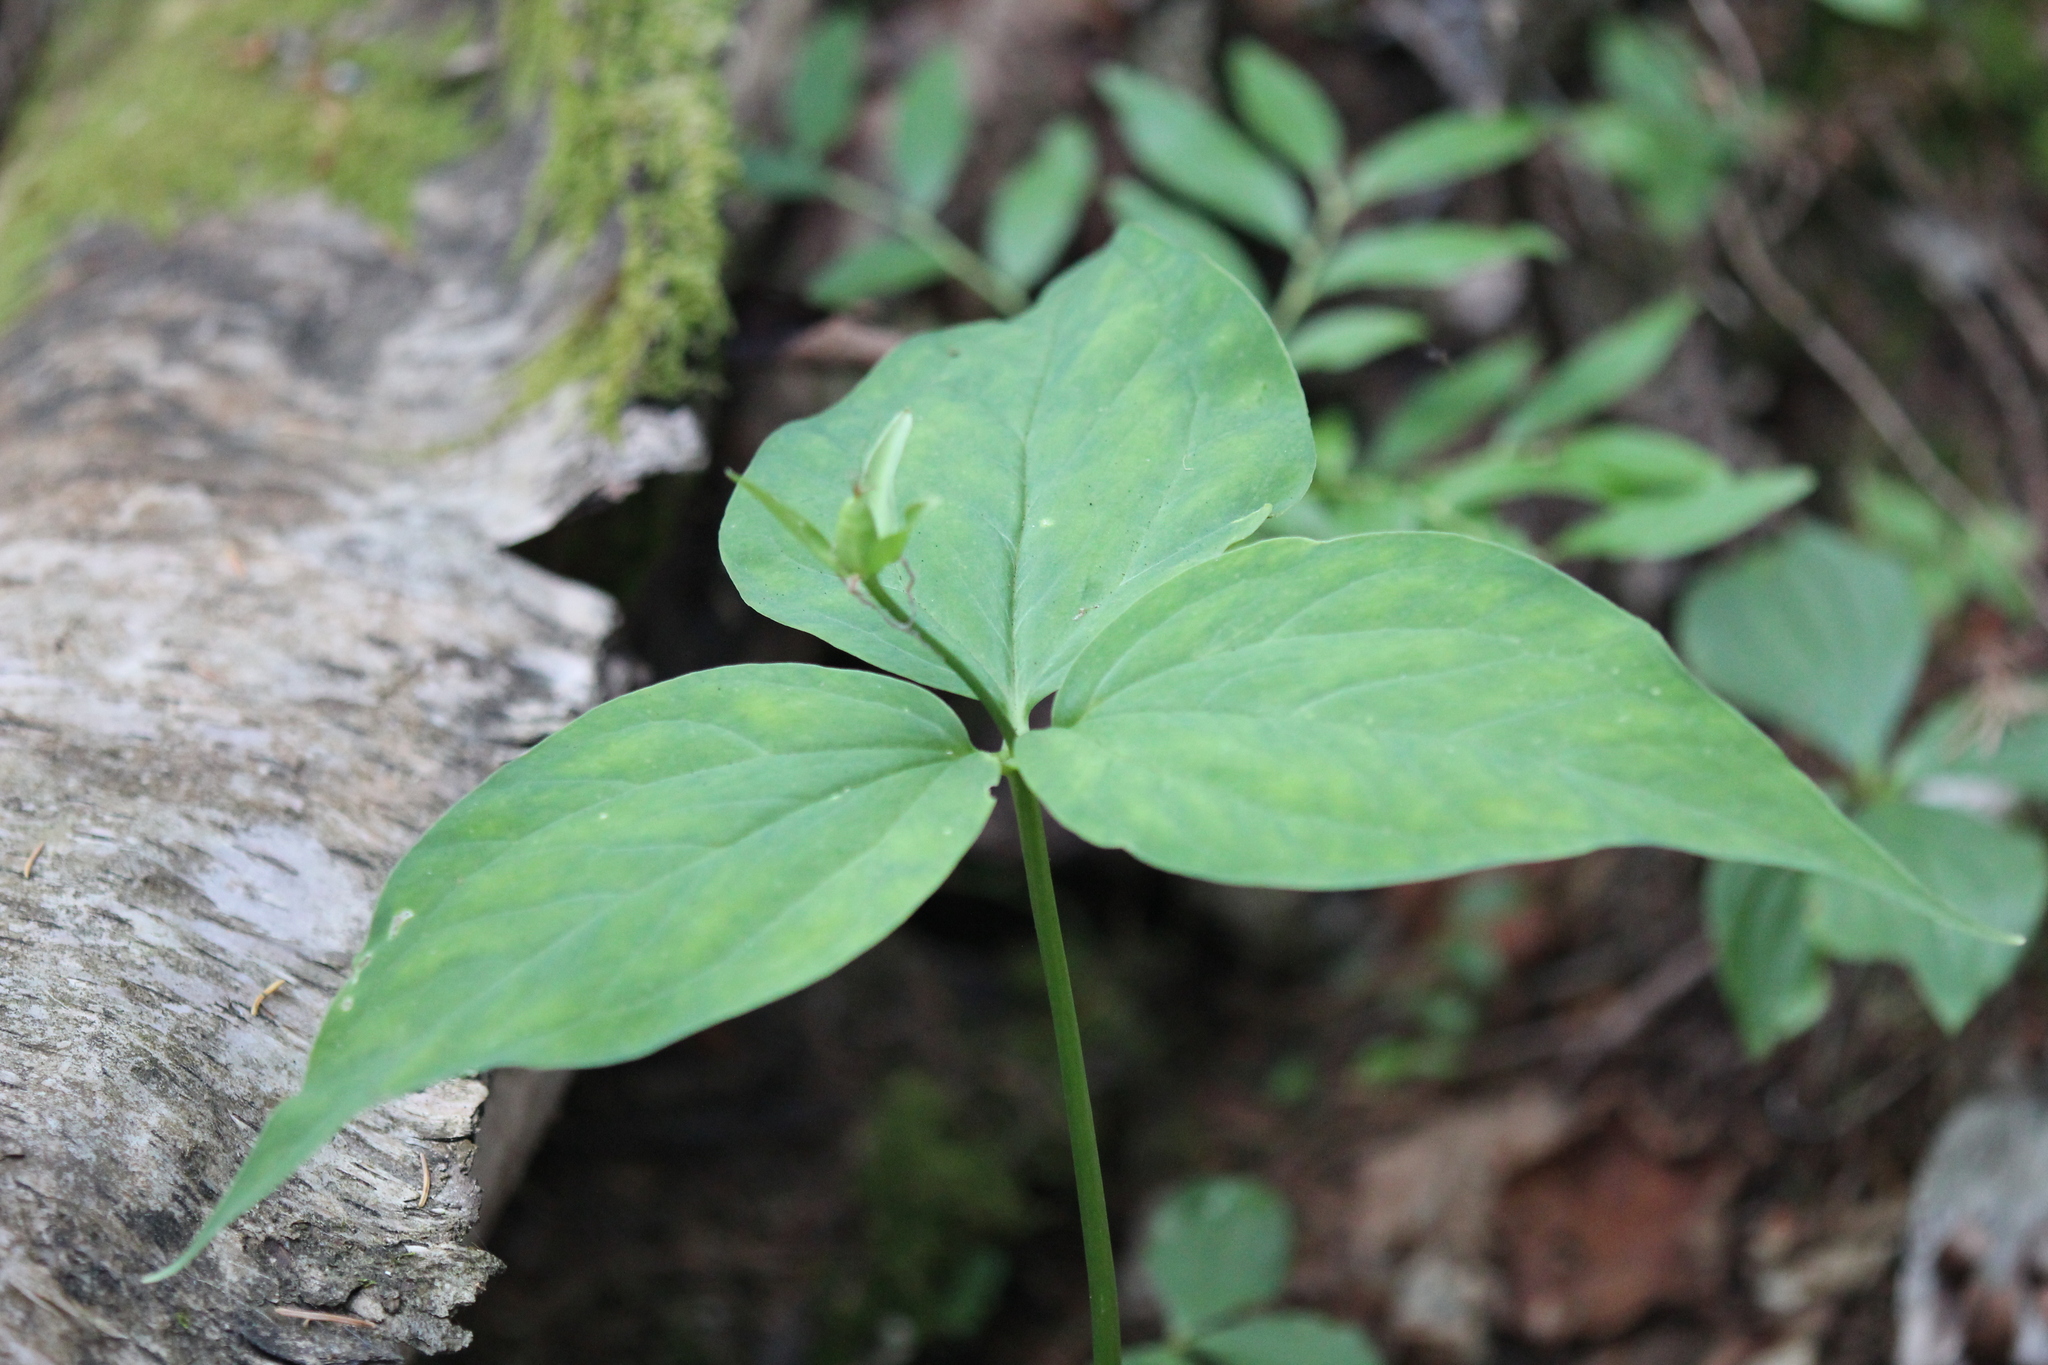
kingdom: Plantae
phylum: Tracheophyta
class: Liliopsida
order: Liliales
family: Melanthiaceae
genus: Trillium
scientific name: Trillium undulatum
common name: Paint trillium
